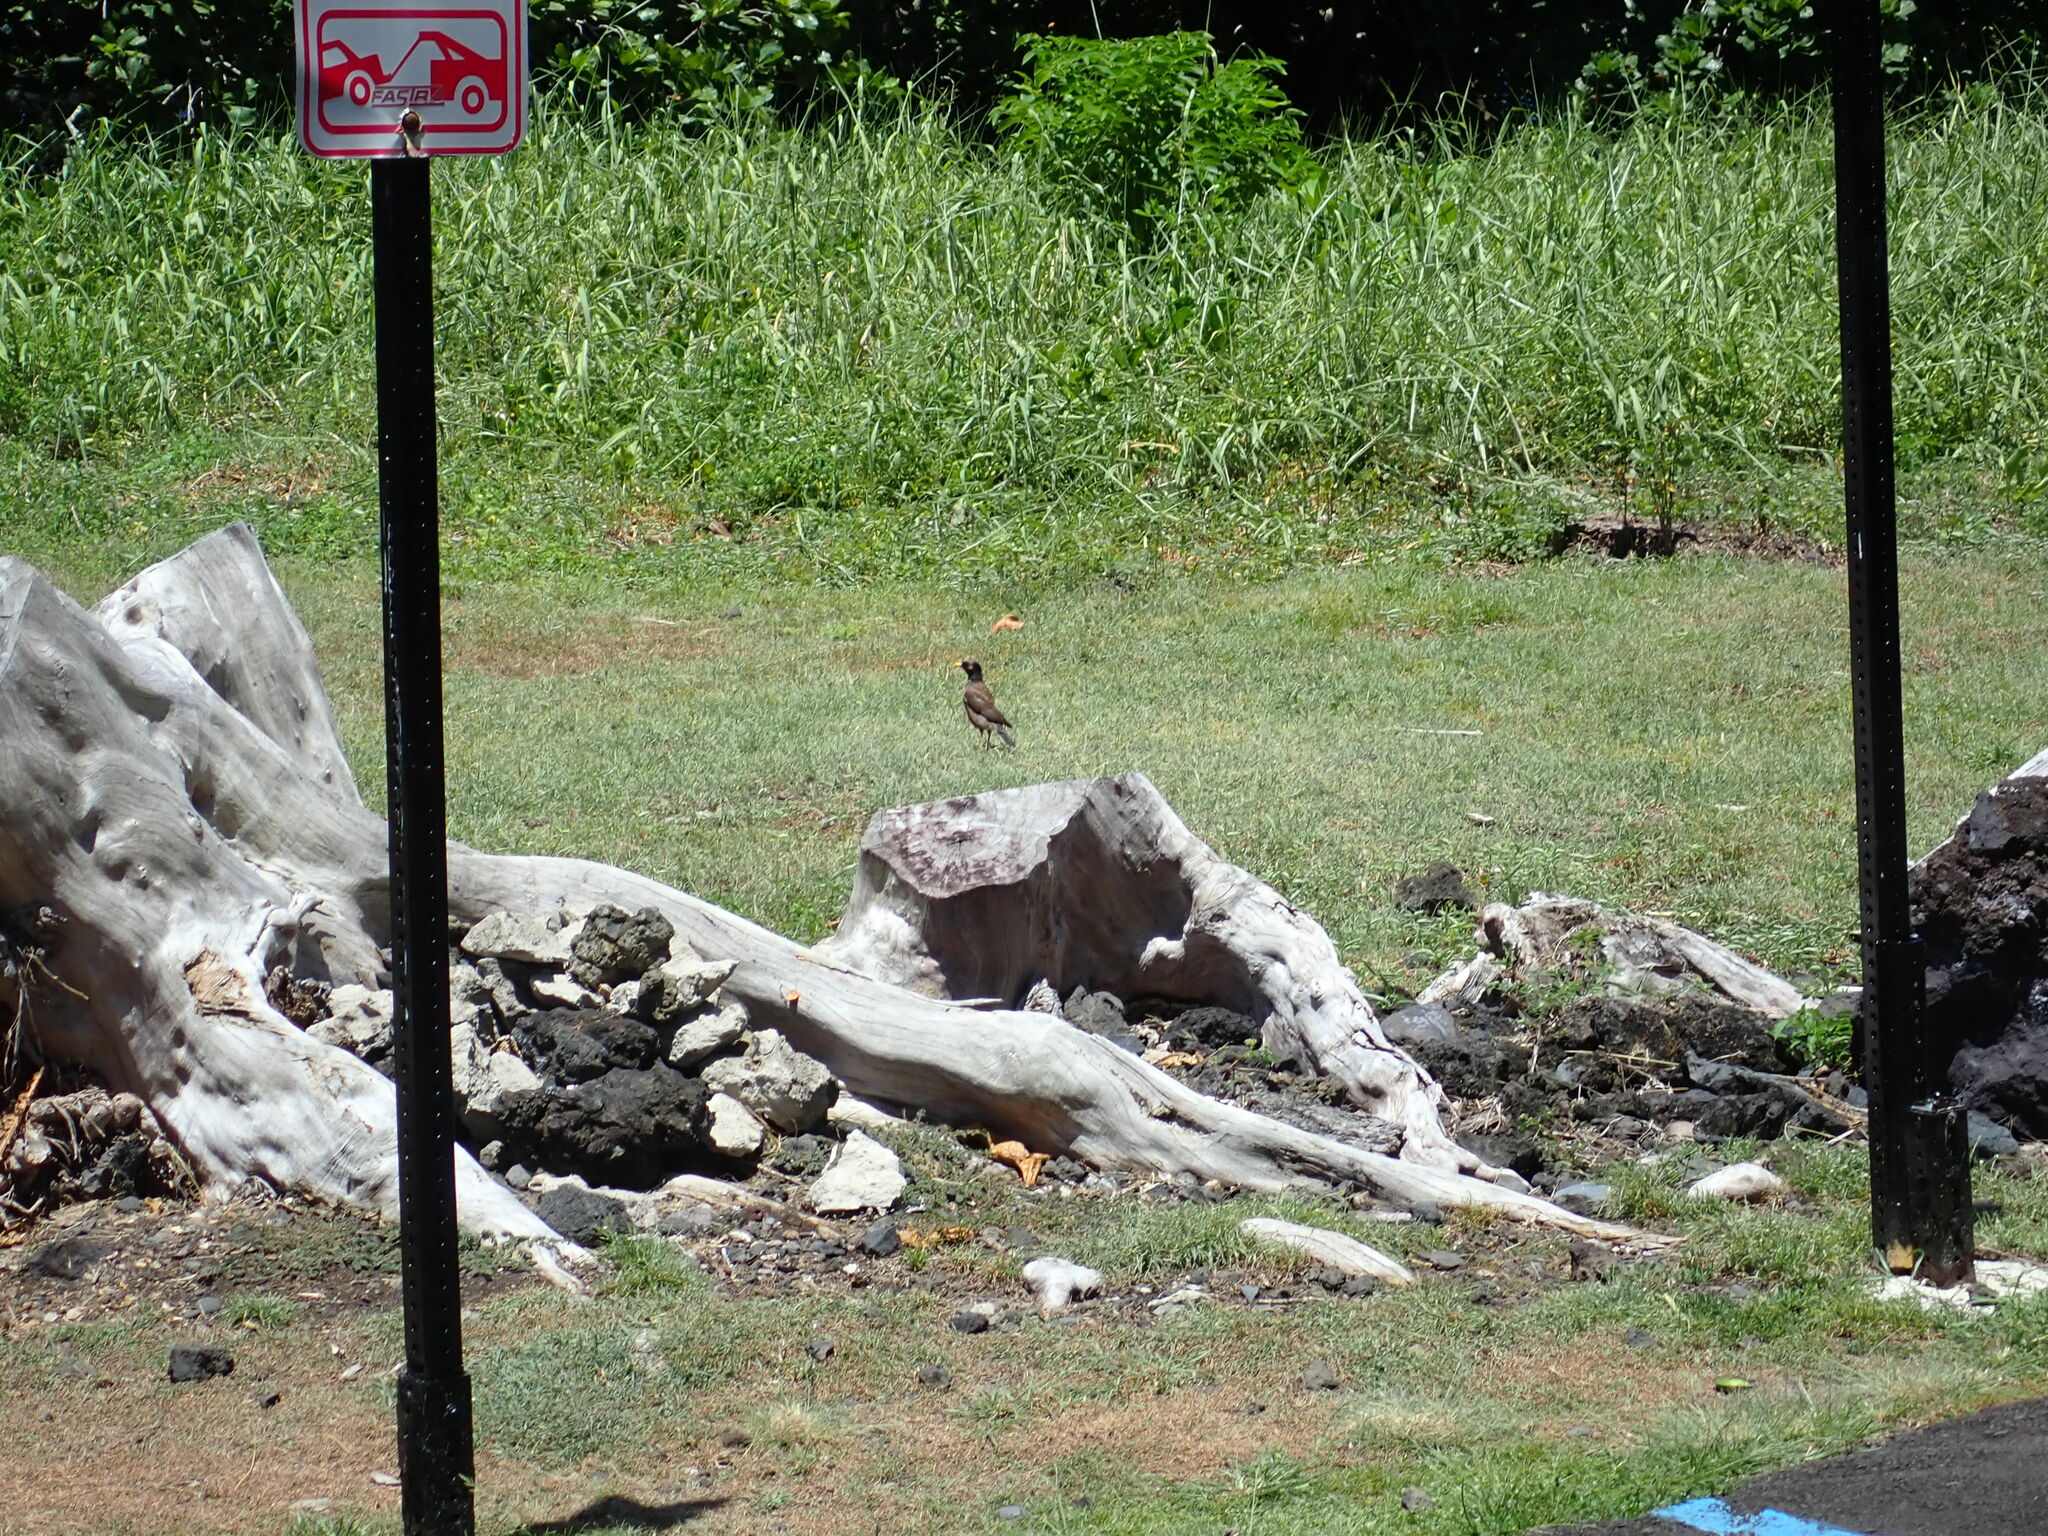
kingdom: Animalia
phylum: Chordata
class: Aves
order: Passeriformes
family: Sturnidae
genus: Acridotheres
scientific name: Acridotheres tristis
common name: Common myna
